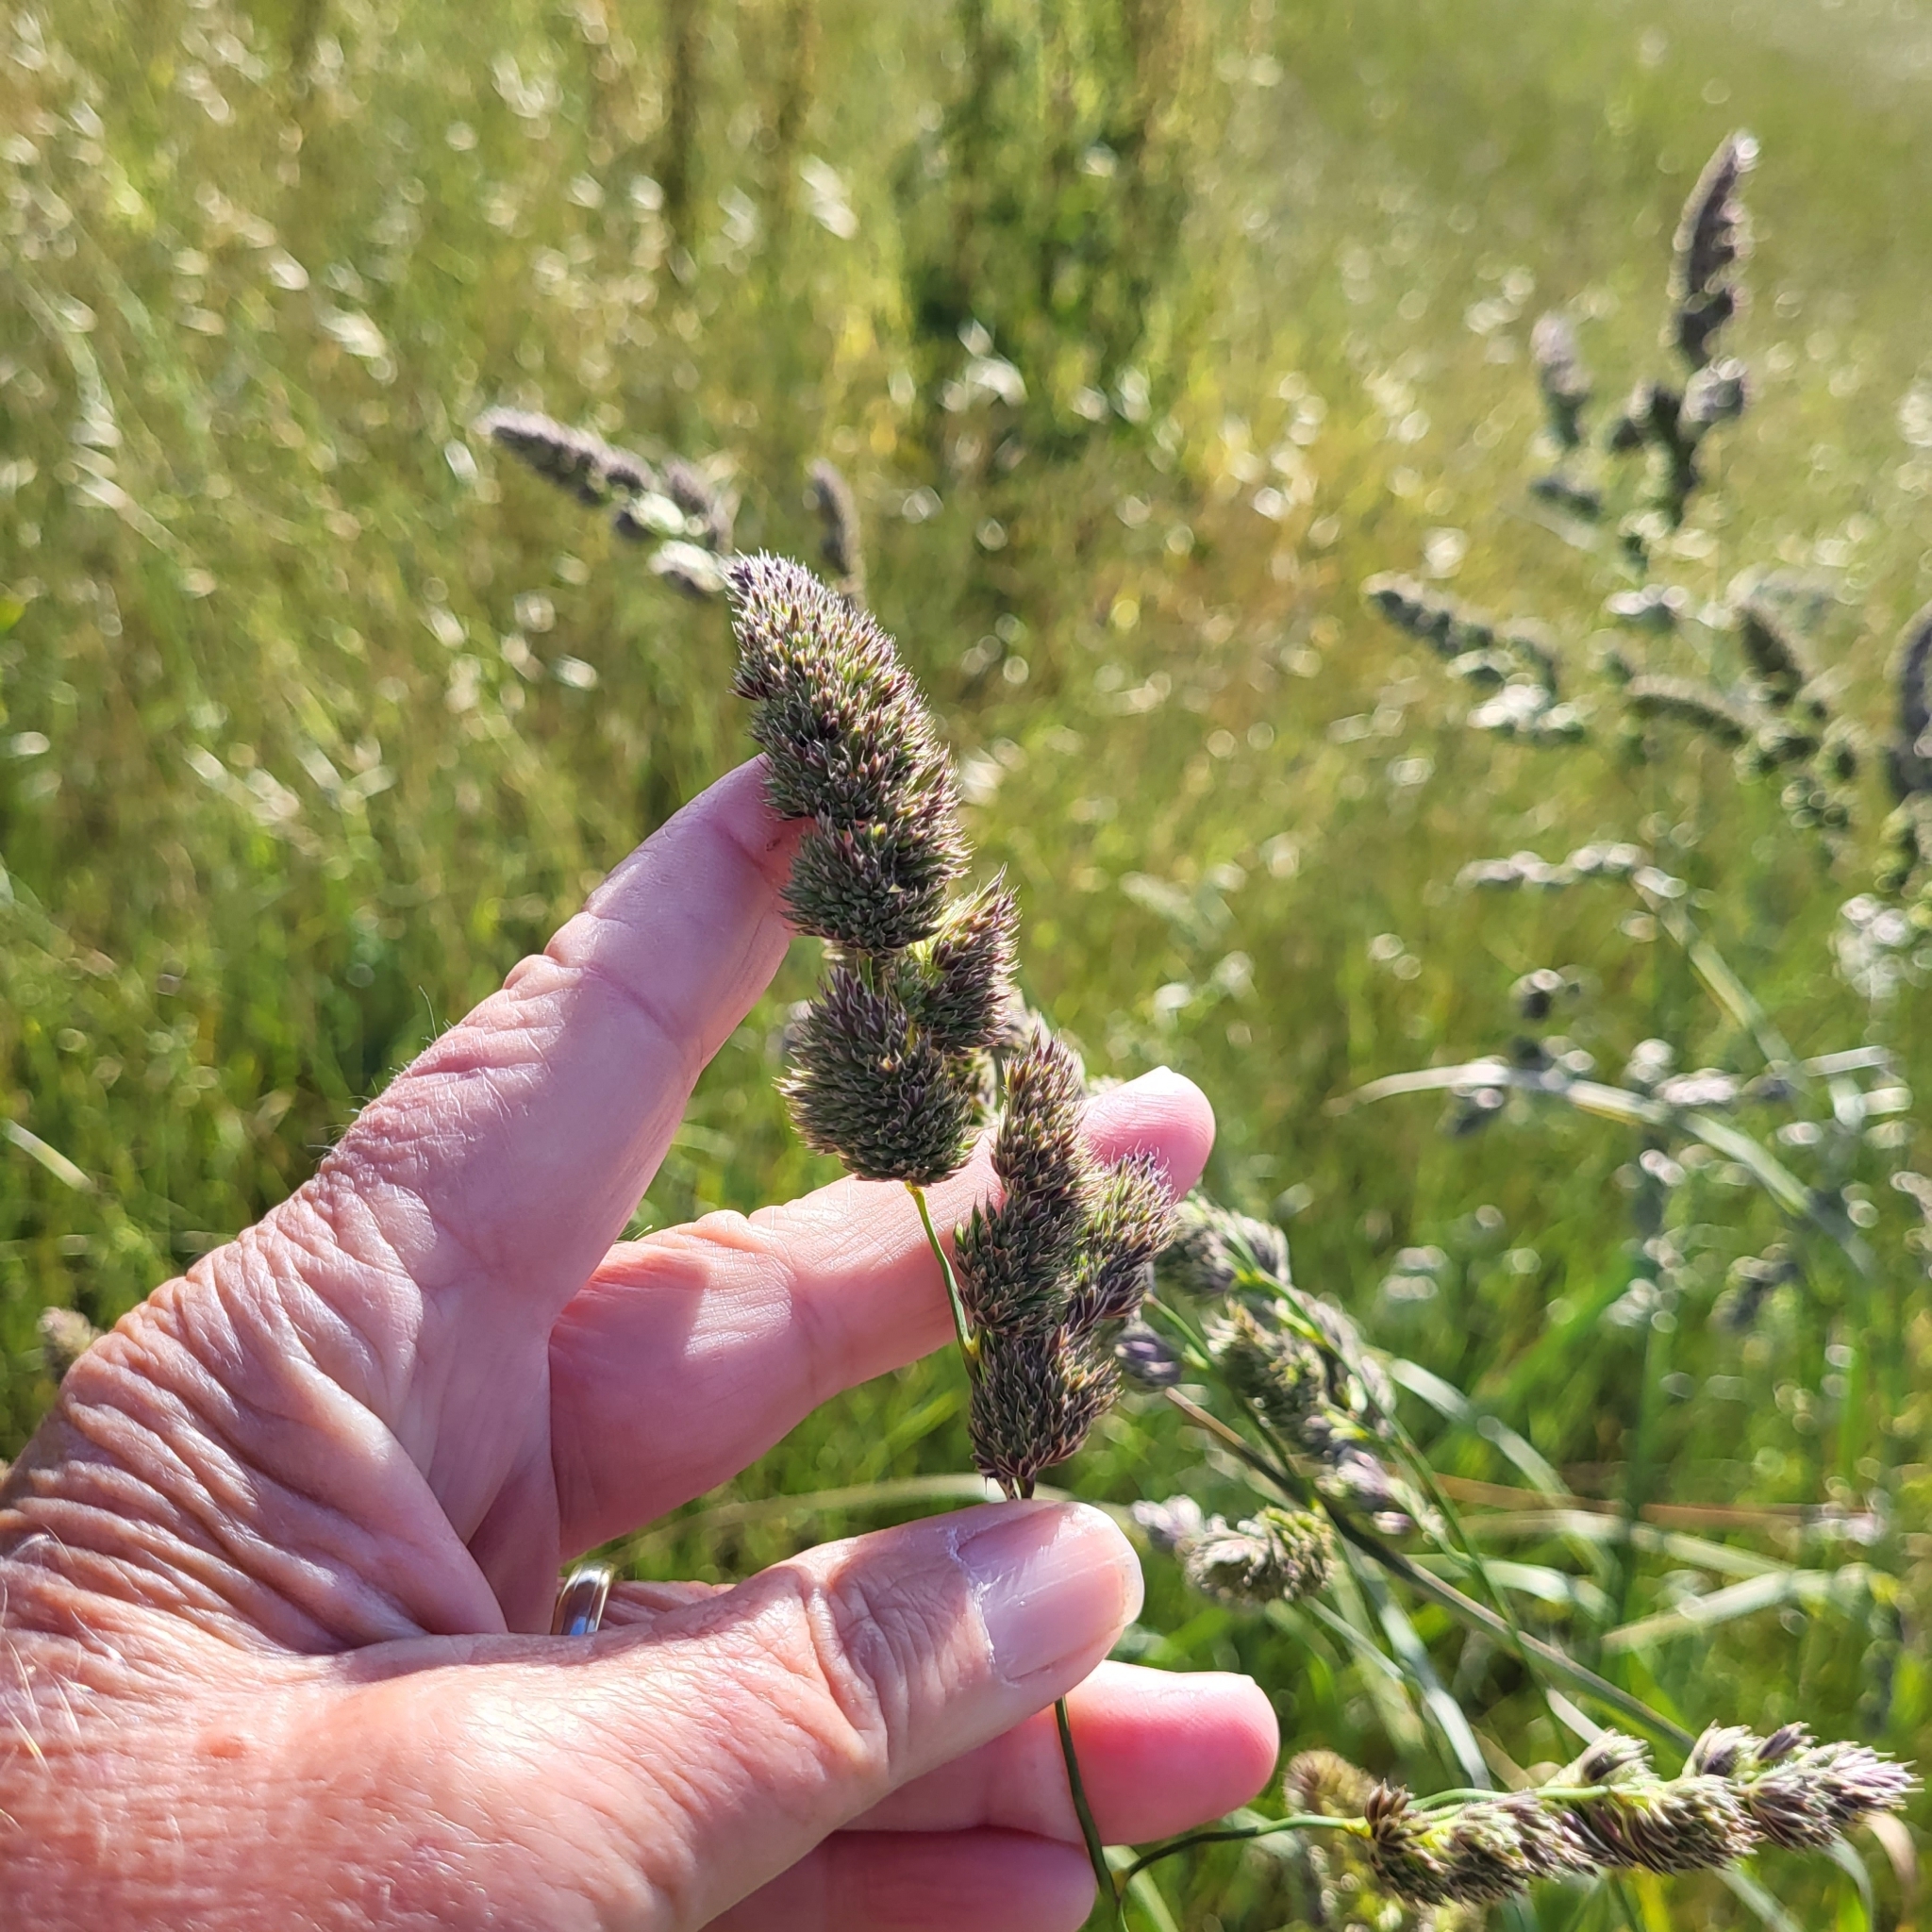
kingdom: Plantae
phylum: Tracheophyta
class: Liliopsida
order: Poales
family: Poaceae
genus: Dactylis
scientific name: Dactylis glomerata
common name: Orchardgrass
